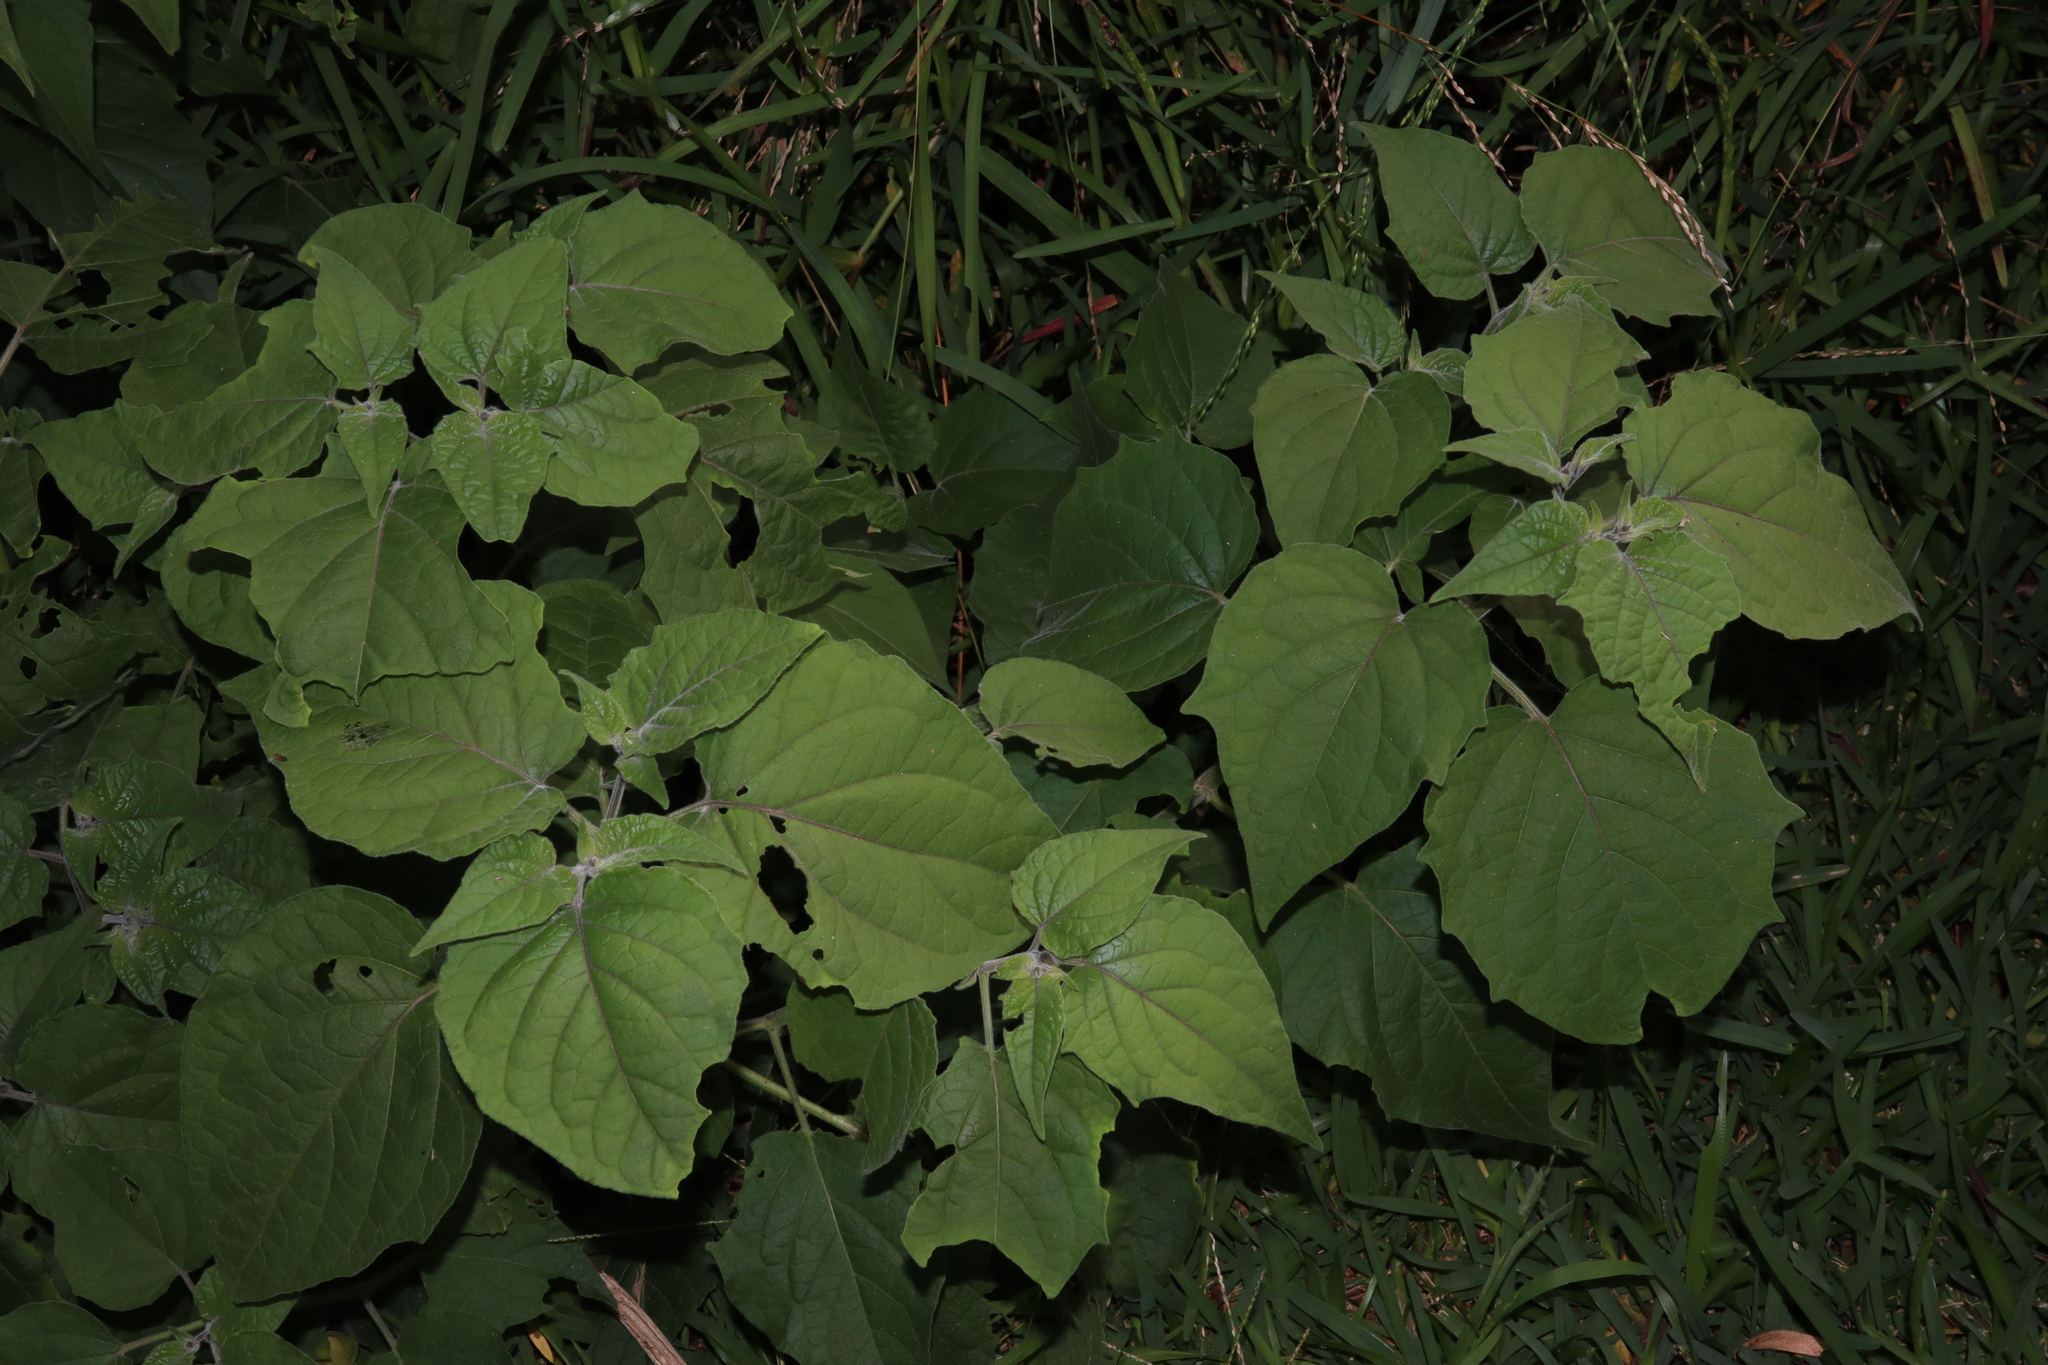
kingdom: Plantae
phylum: Tracheophyta
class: Magnoliopsida
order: Solanales
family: Solanaceae
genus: Physalis
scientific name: Physalis peruviana
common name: Cape-gooseberry
